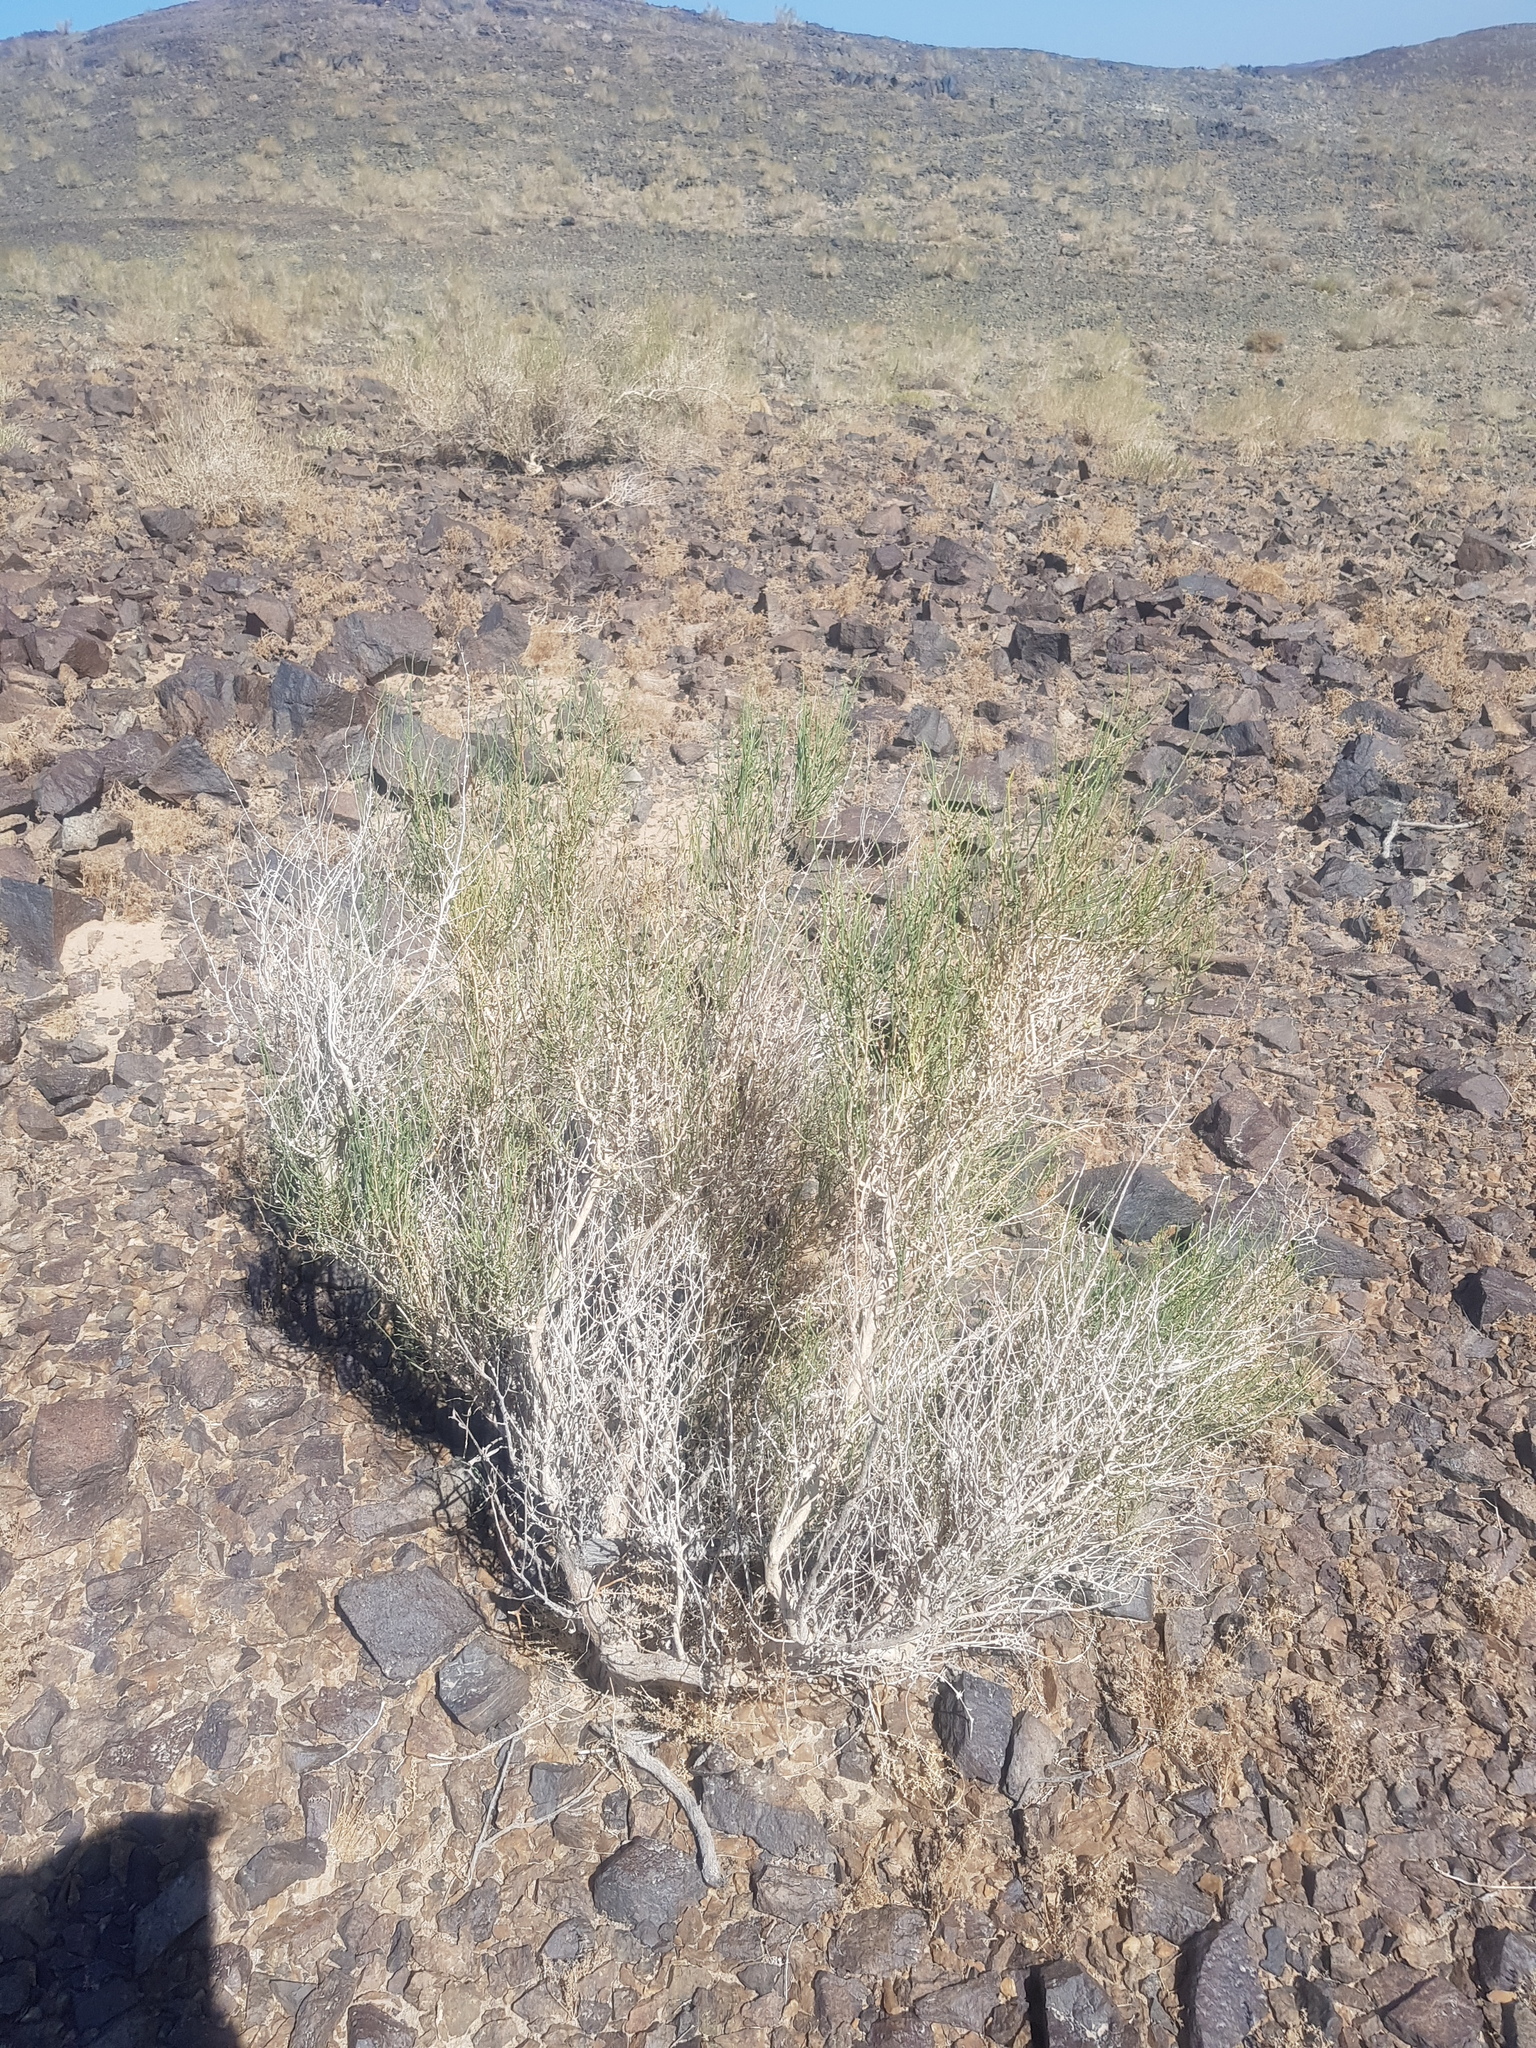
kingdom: Plantae
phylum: Tracheophyta
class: Magnoliopsida
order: Caryophyllales
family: Amaranthaceae
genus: Haloxylon
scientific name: Haloxylon ammodendron
